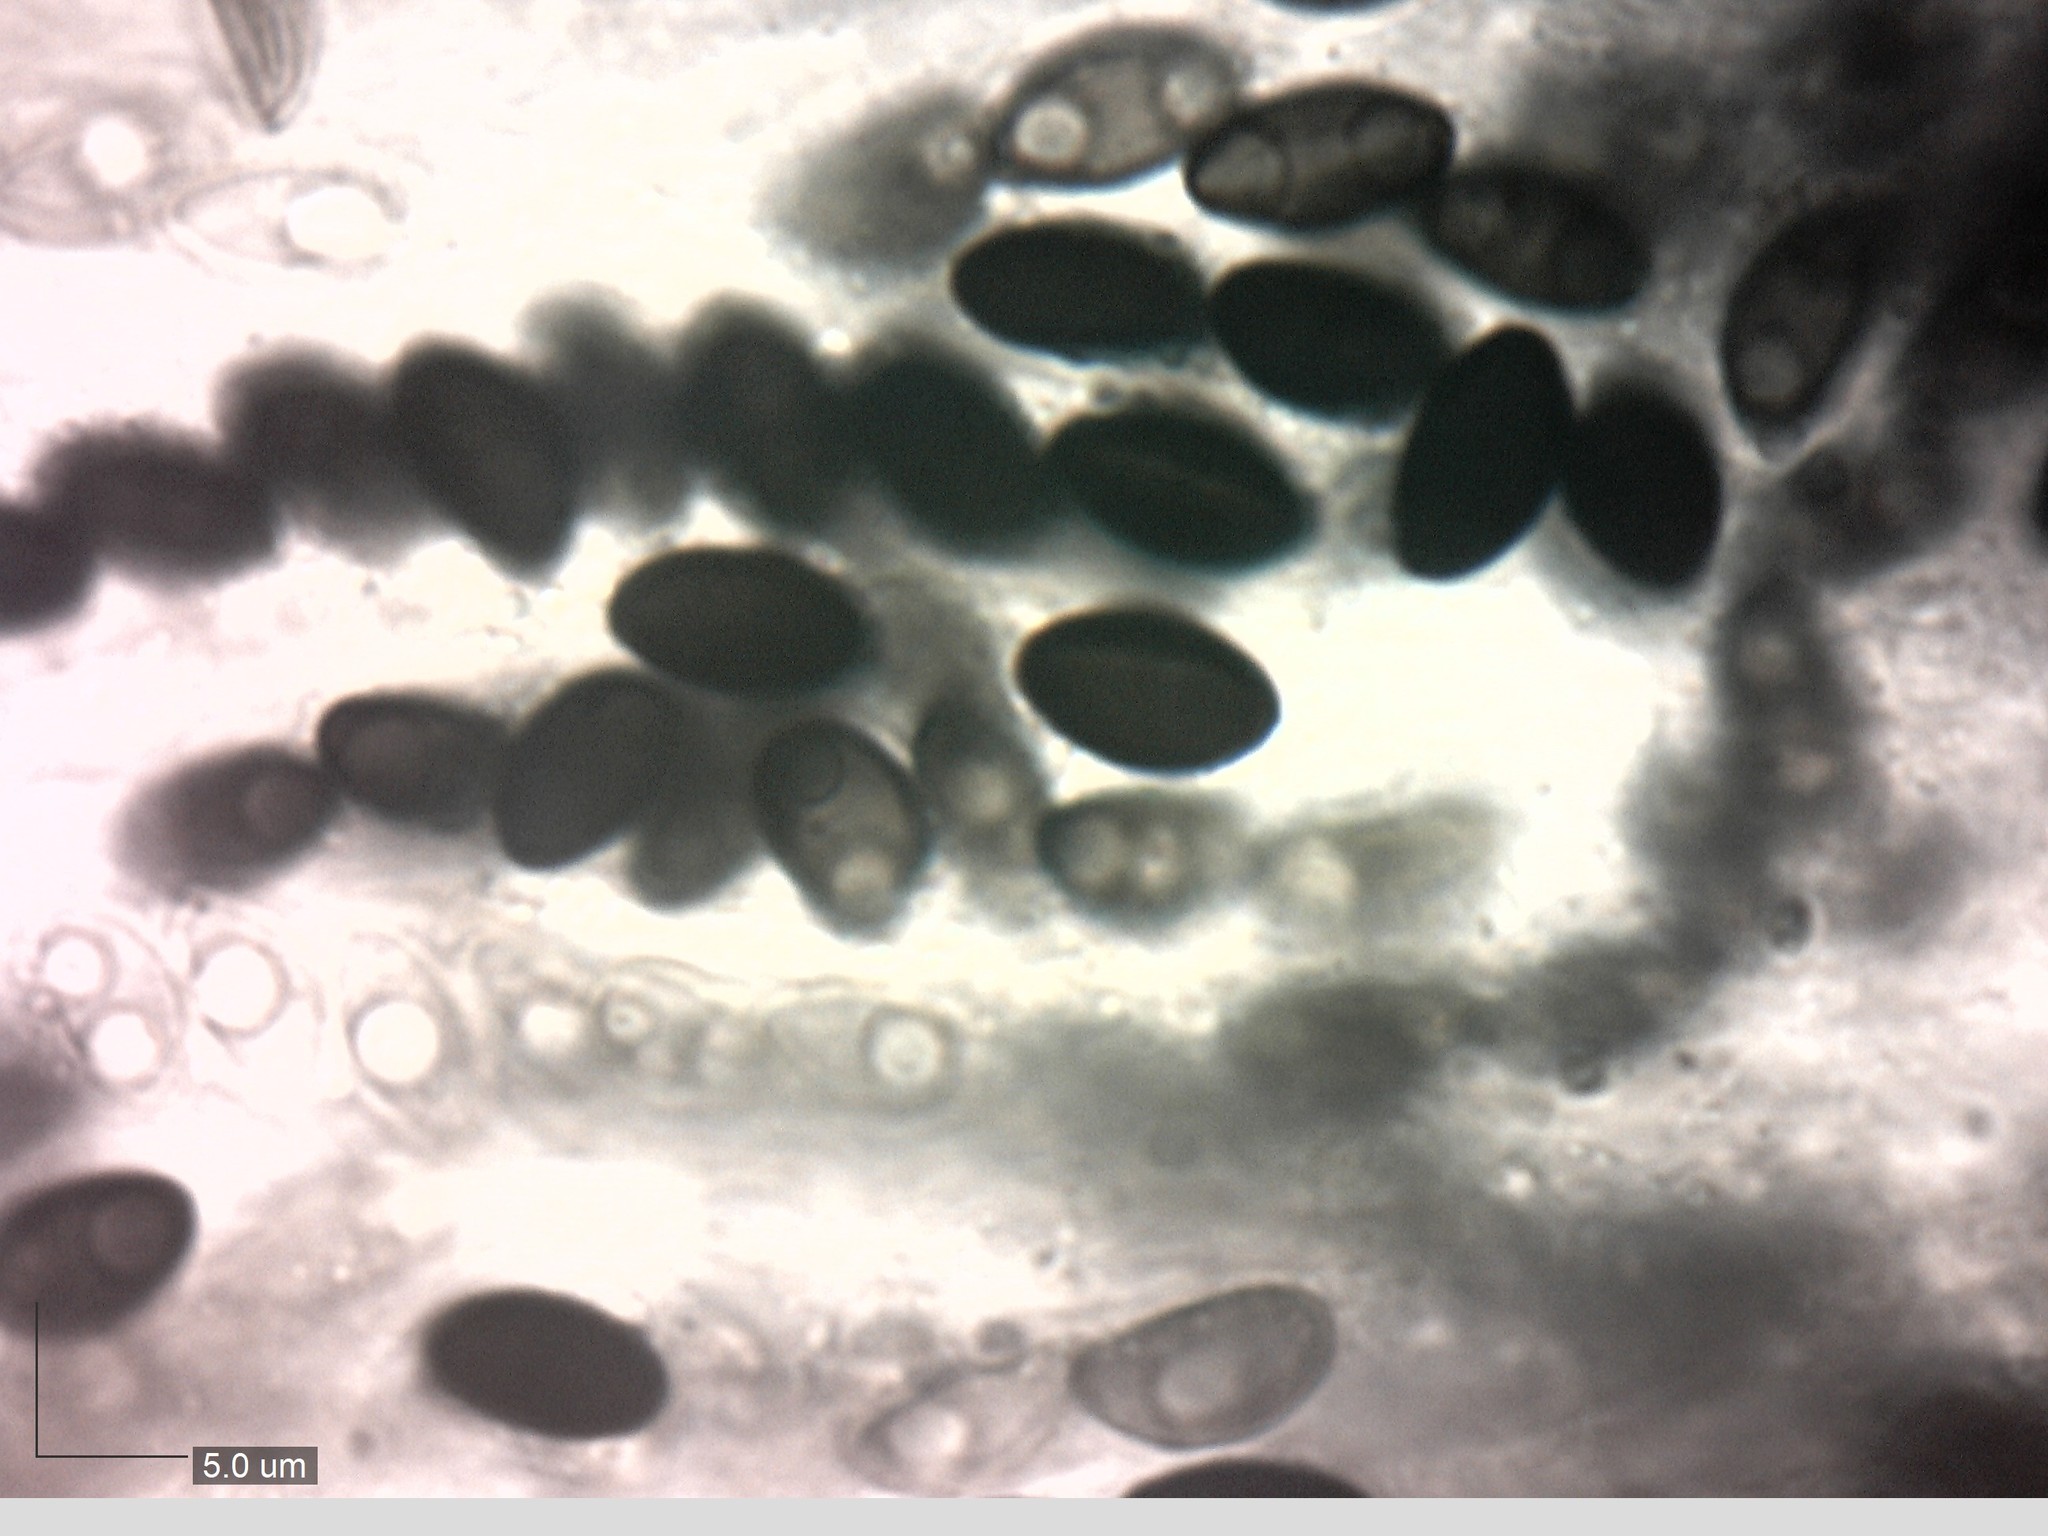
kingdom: Fungi
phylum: Ascomycota
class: Sordariomycetes
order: Xylariales
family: Xylariaceae
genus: Xylaria
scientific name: Xylaria corniformis
